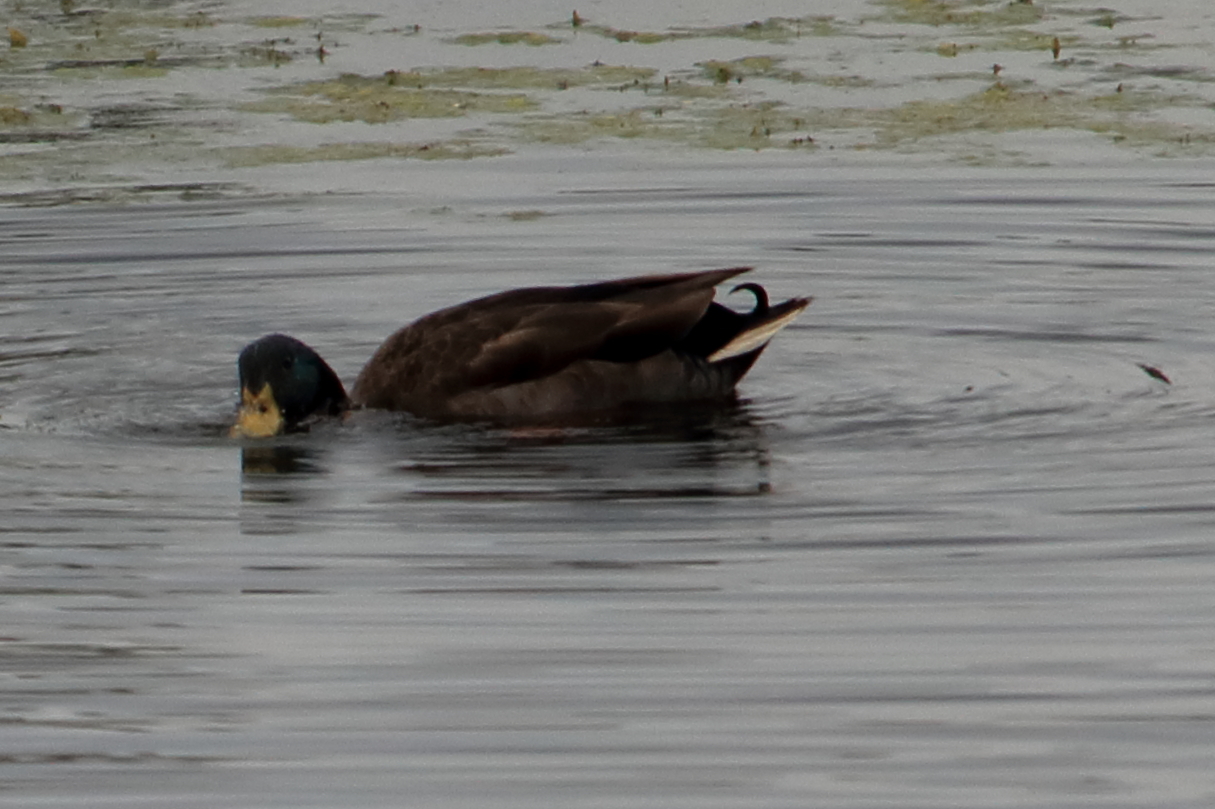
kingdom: Animalia
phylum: Chordata
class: Aves
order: Anseriformes
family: Anatidae
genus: Anas
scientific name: Anas platyrhynchos
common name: Mallard
